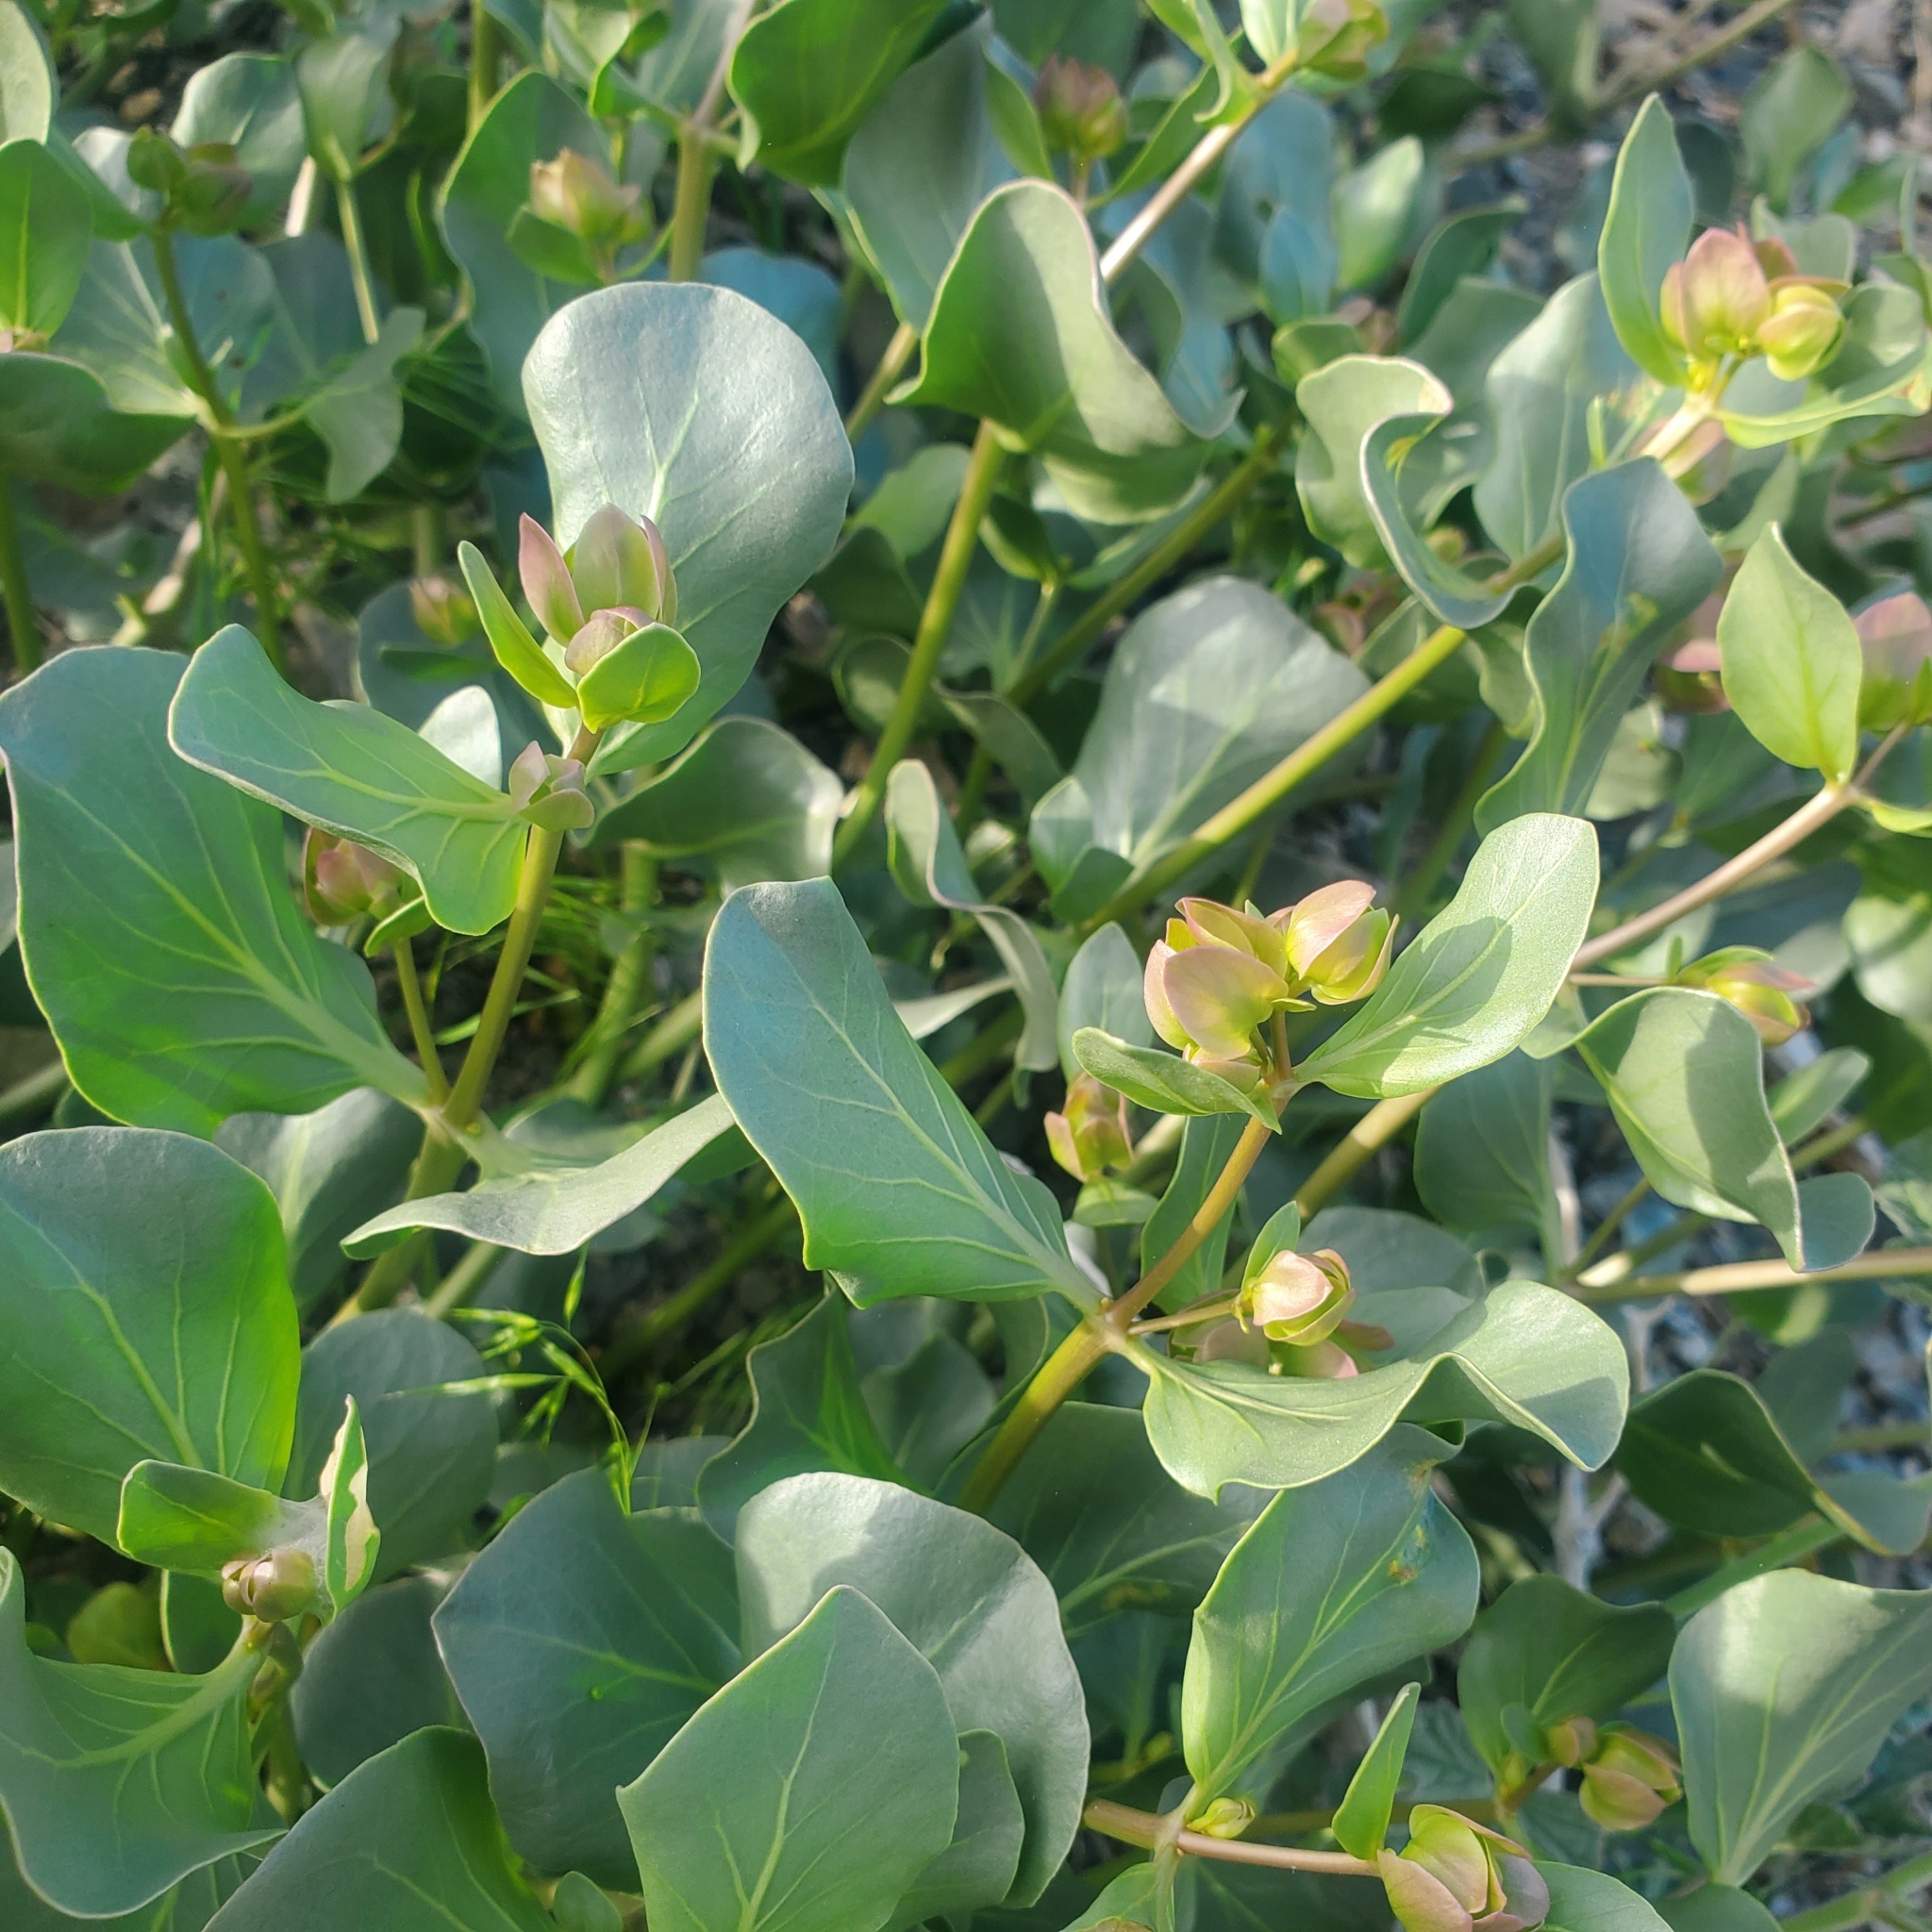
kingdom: Plantae
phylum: Tracheophyta
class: Magnoliopsida
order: Caryophyllales
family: Nyctaginaceae
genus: Mirabilis
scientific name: Mirabilis alipes
